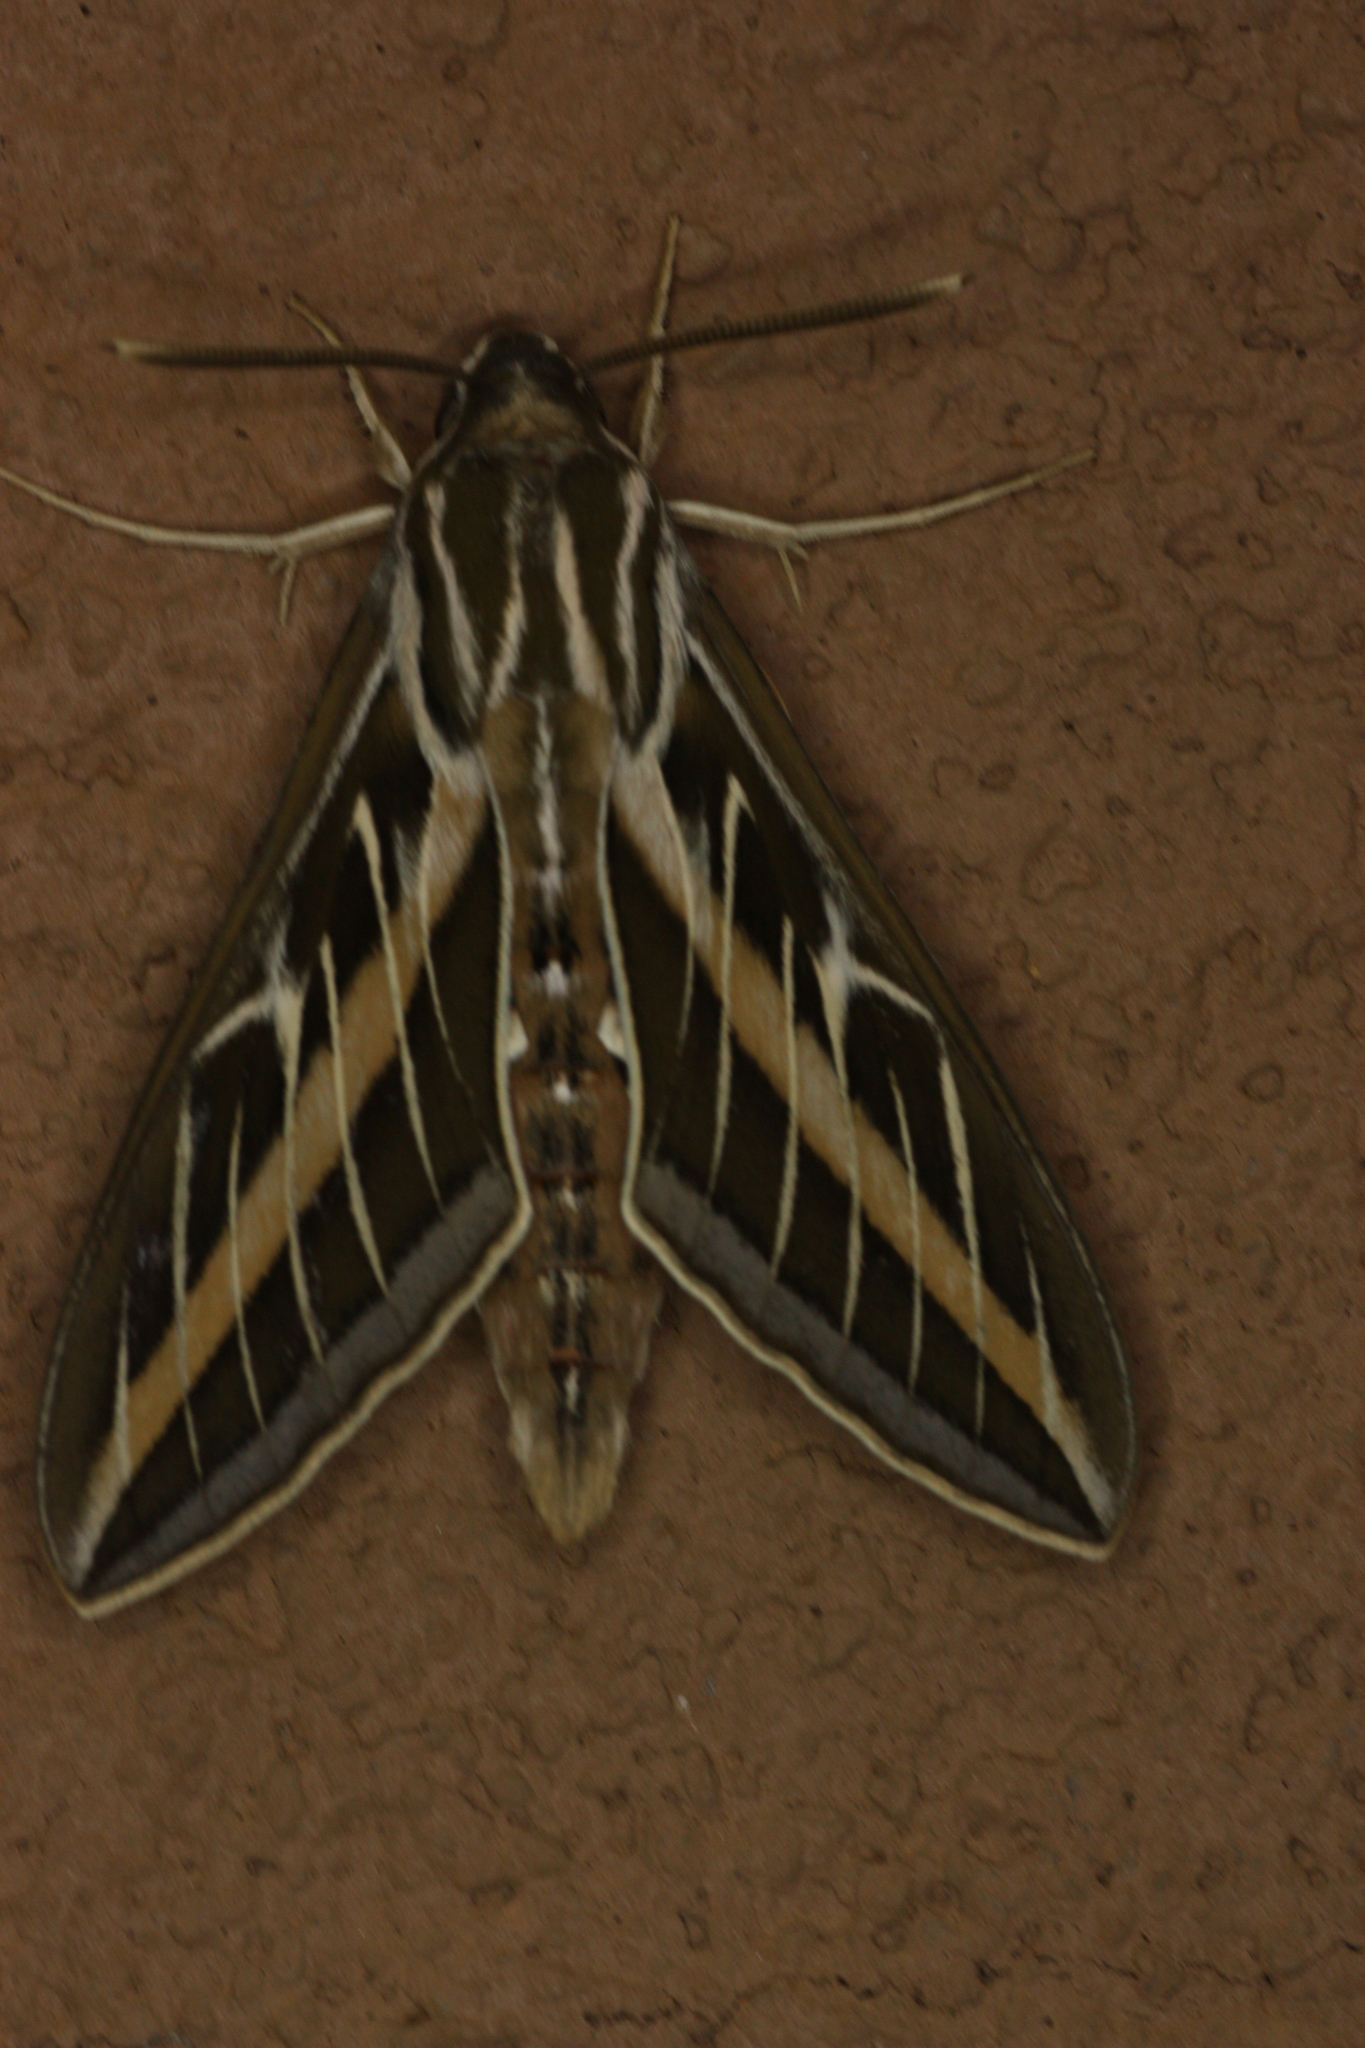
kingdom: Animalia
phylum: Arthropoda
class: Insecta
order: Lepidoptera
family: Sphingidae
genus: Hyles
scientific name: Hyles lineata
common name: White-lined sphinx
